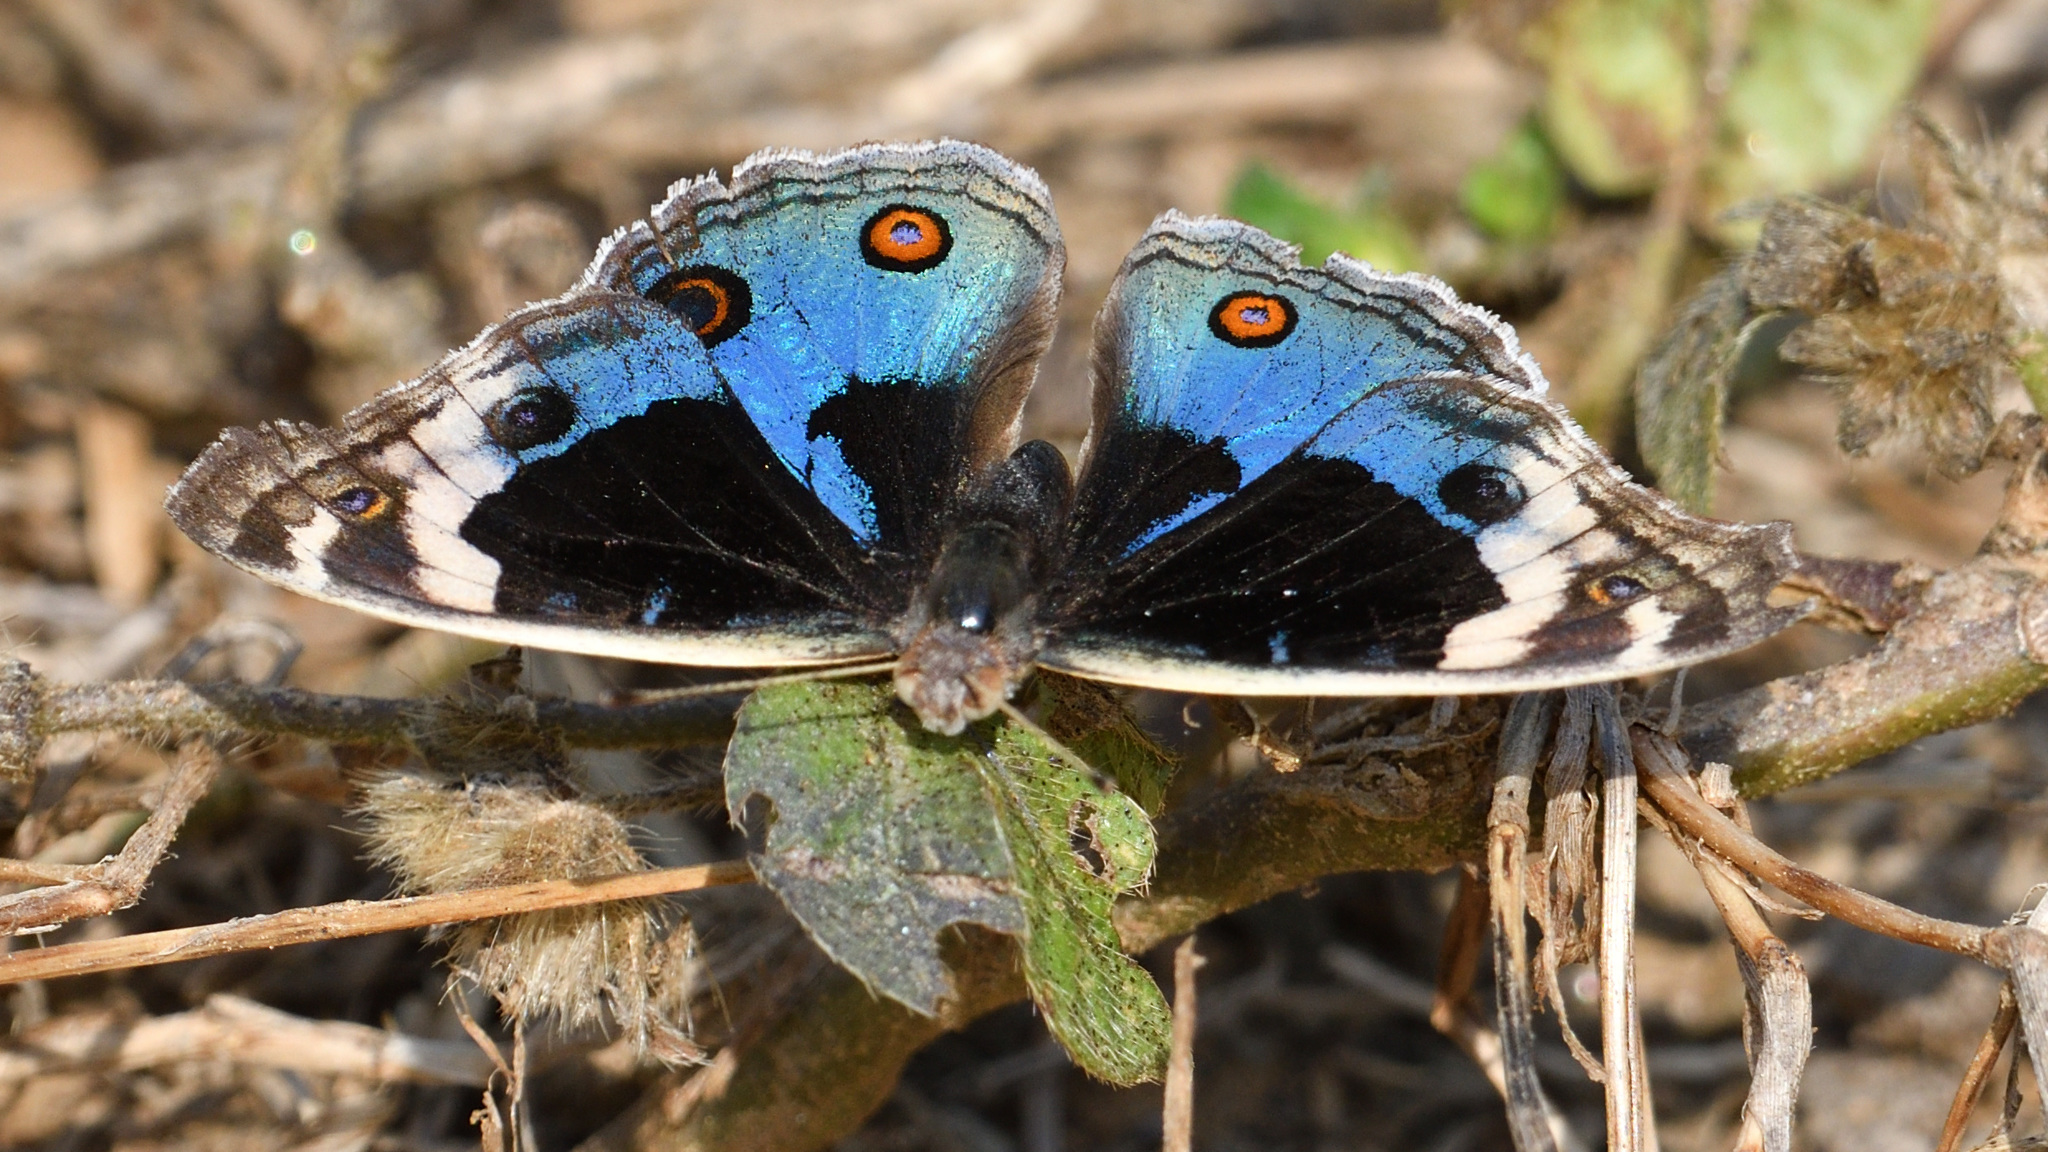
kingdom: Animalia
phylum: Arthropoda
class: Insecta
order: Lepidoptera
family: Nymphalidae
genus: Junonia
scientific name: Junonia orithya
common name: Blue pansy
